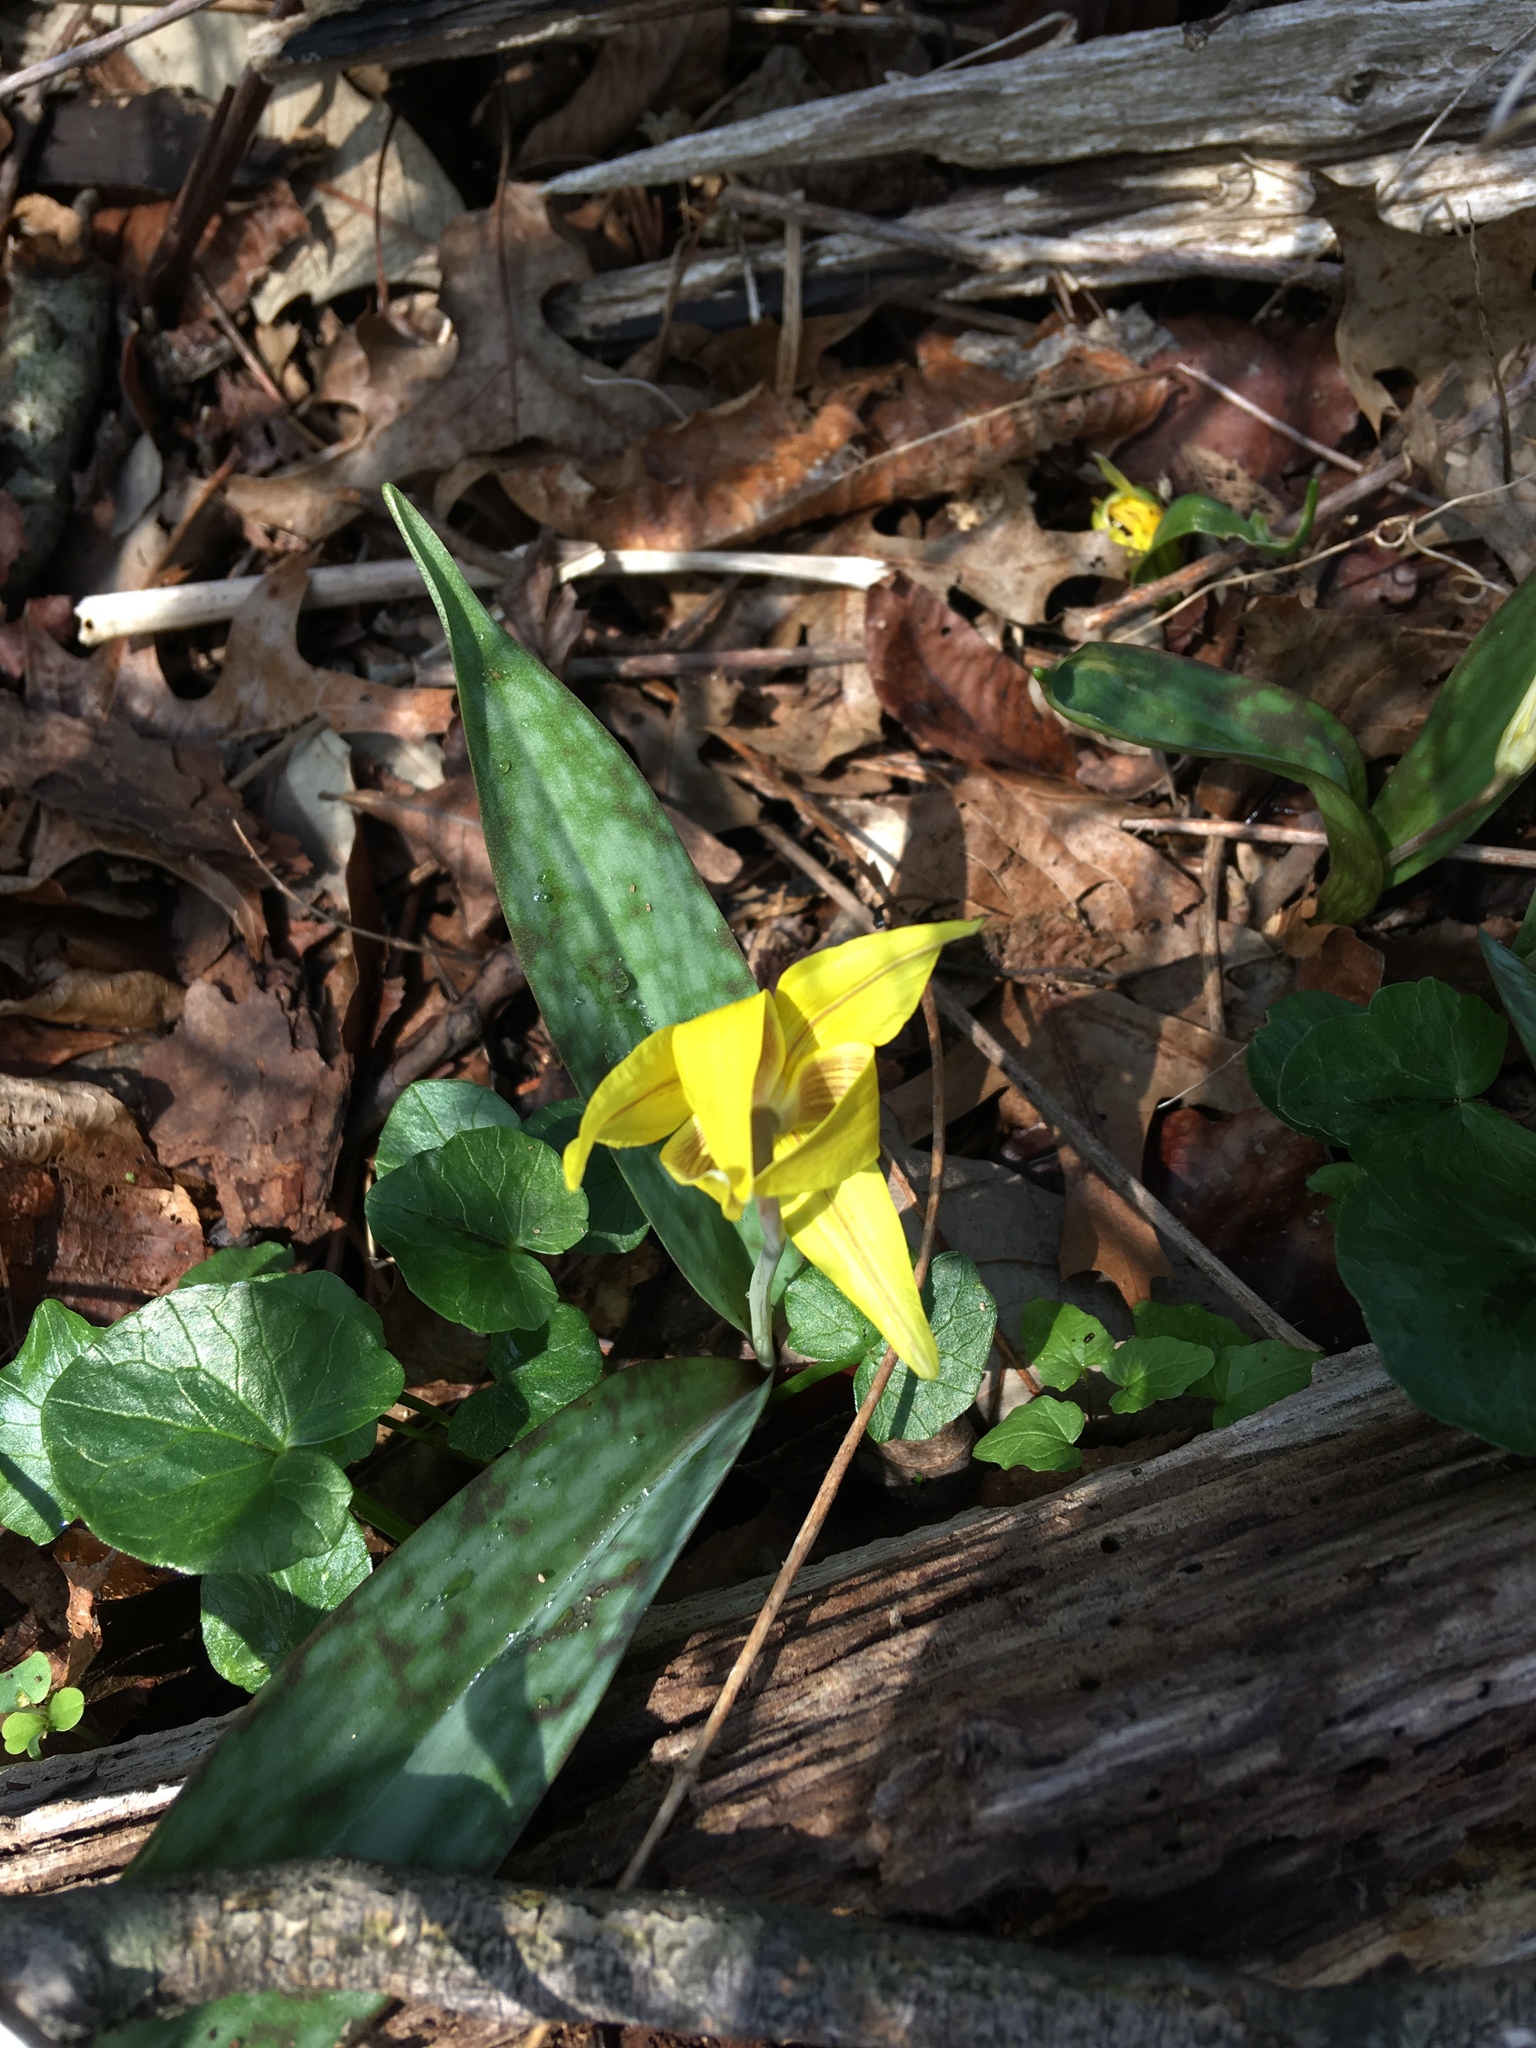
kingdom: Plantae
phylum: Tracheophyta
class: Liliopsida
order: Liliales
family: Liliaceae
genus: Erythronium
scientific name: Erythronium americanum
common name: Yellow adder's-tongue
